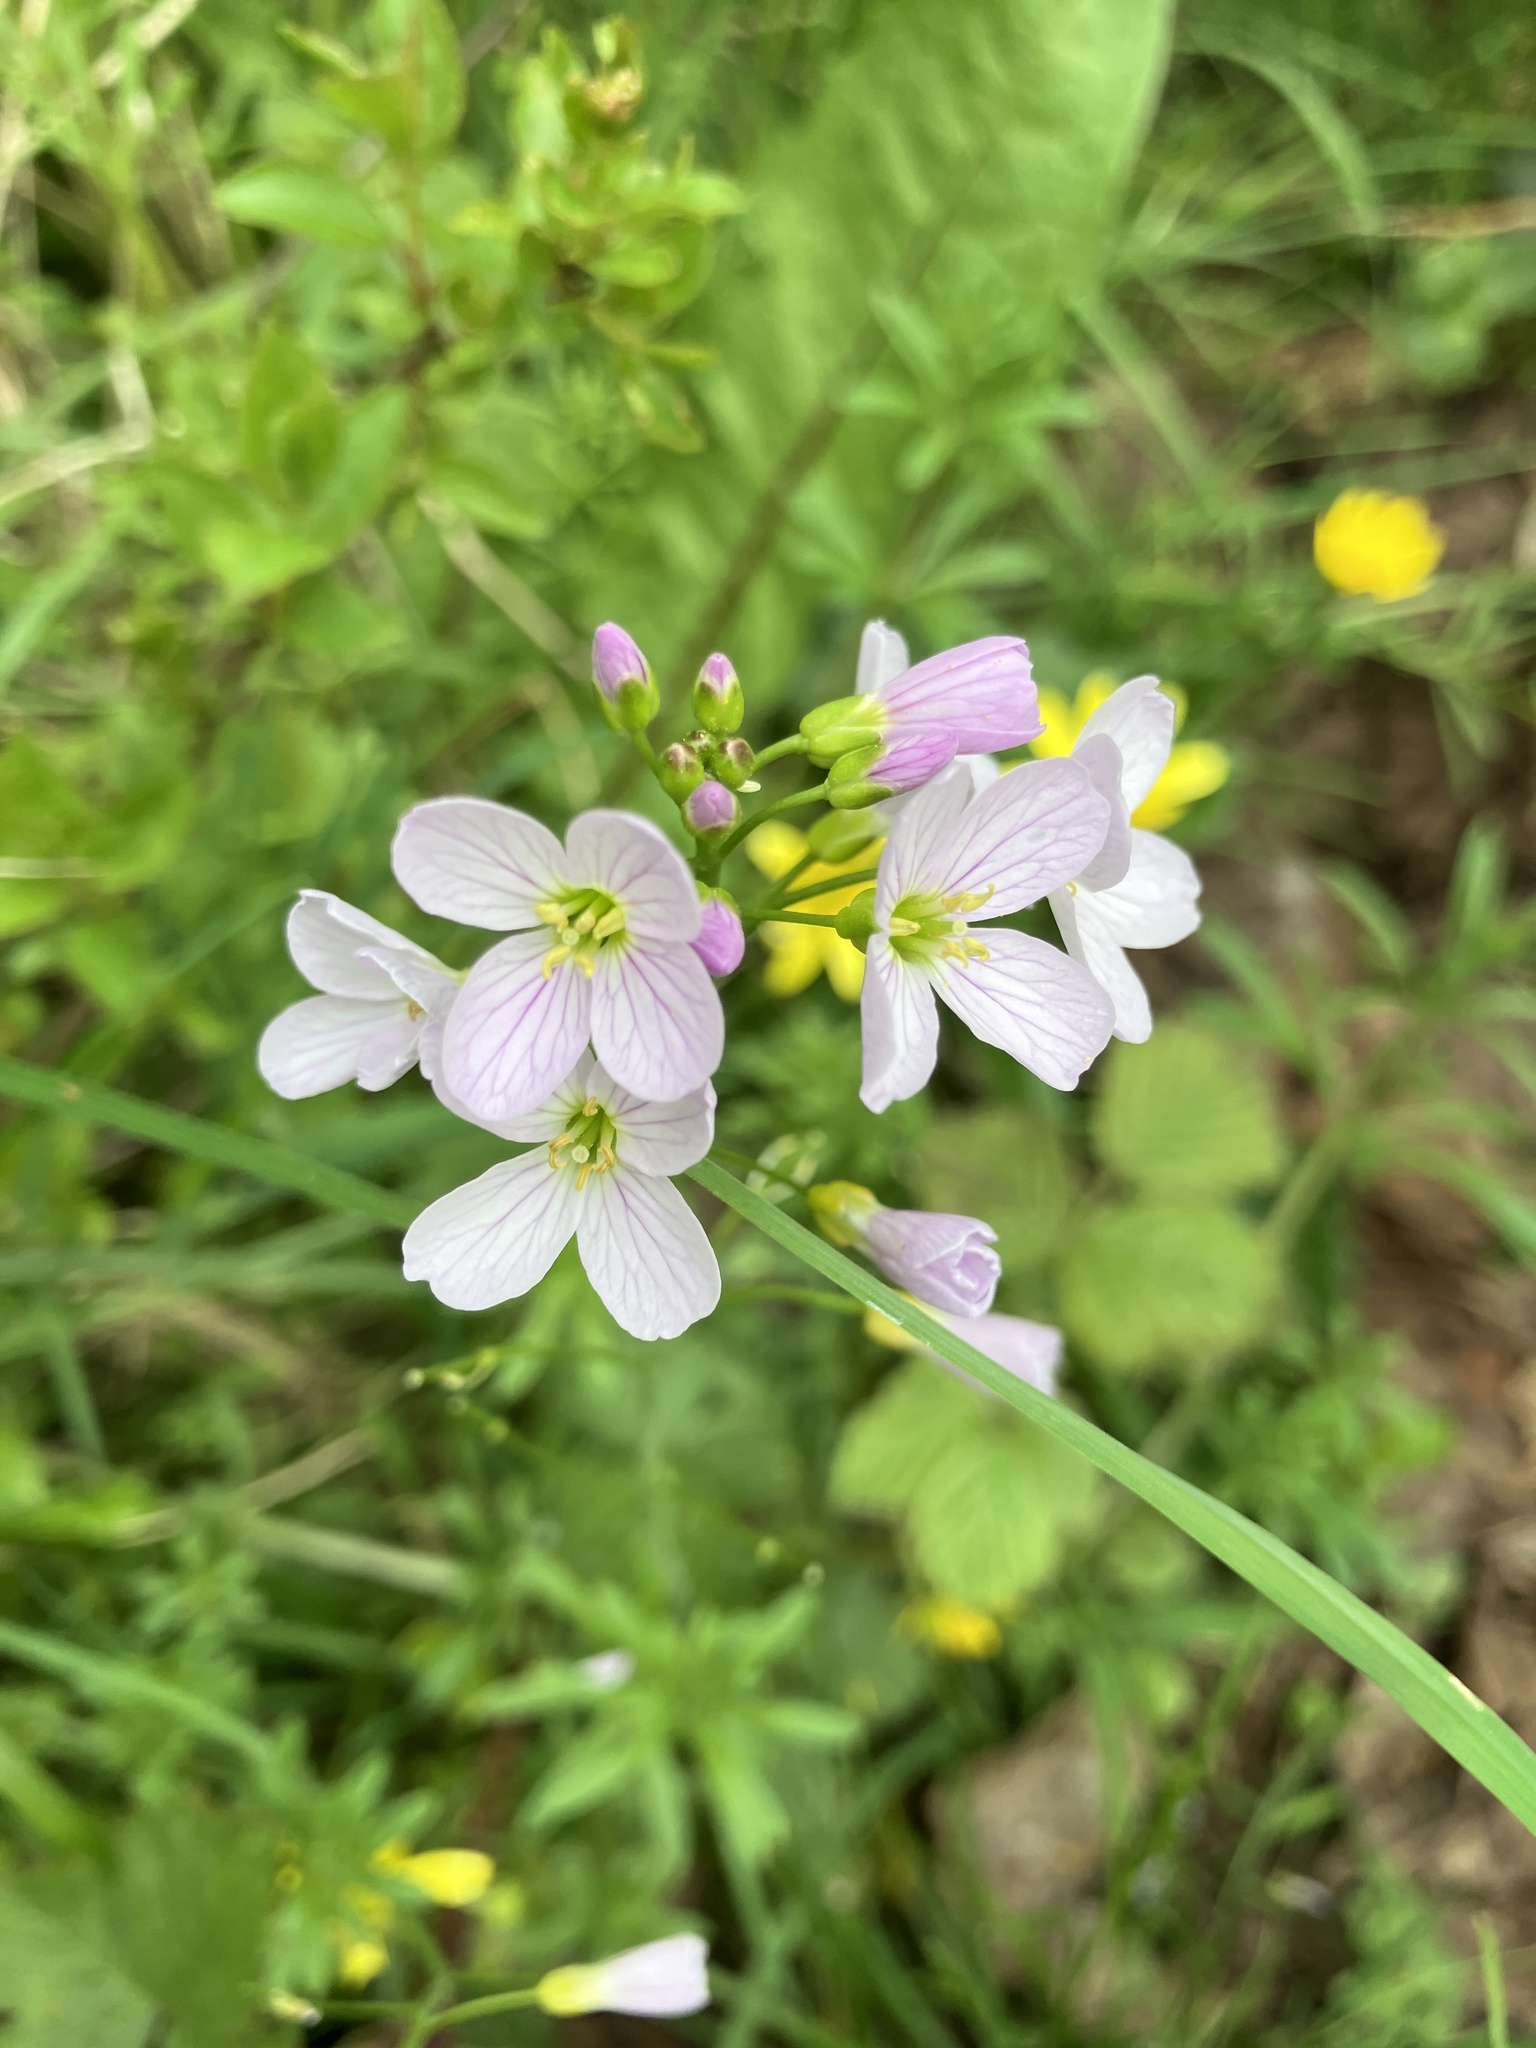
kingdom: Plantae
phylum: Tracheophyta
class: Magnoliopsida
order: Brassicales
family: Brassicaceae
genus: Cardamine
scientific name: Cardamine pratensis
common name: Cuckoo flower
